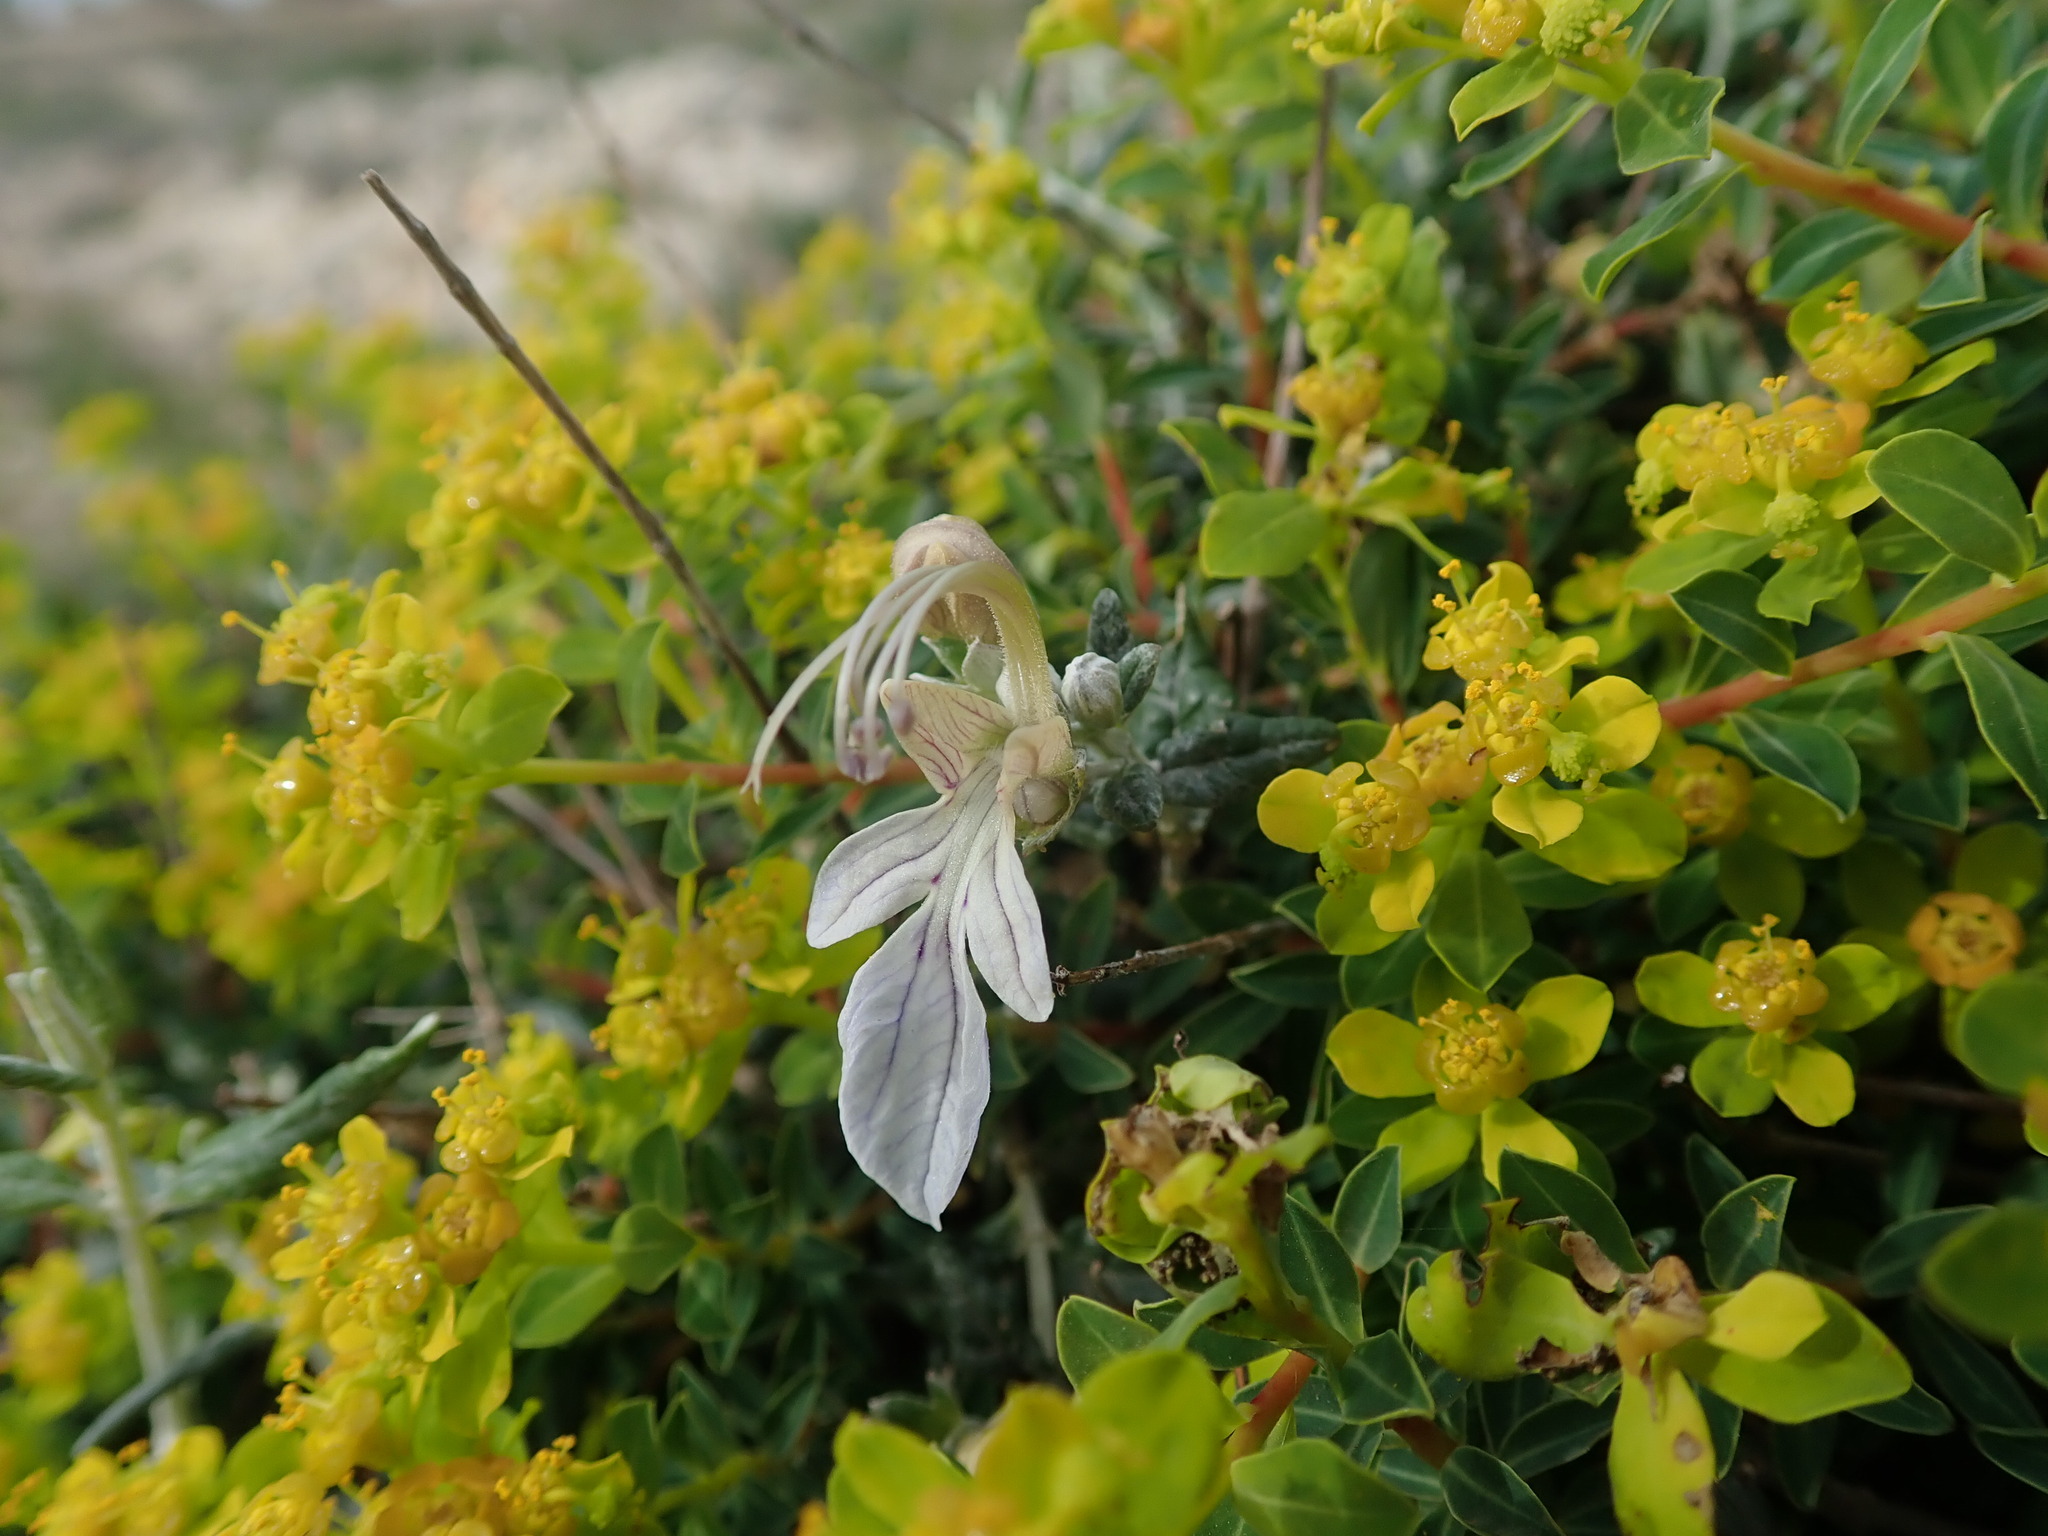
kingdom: Plantae
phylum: Tracheophyta
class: Magnoliopsida
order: Lamiales
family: Lamiaceae
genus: Teucrium
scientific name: Teucrium fruticans
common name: Shrubby germander
